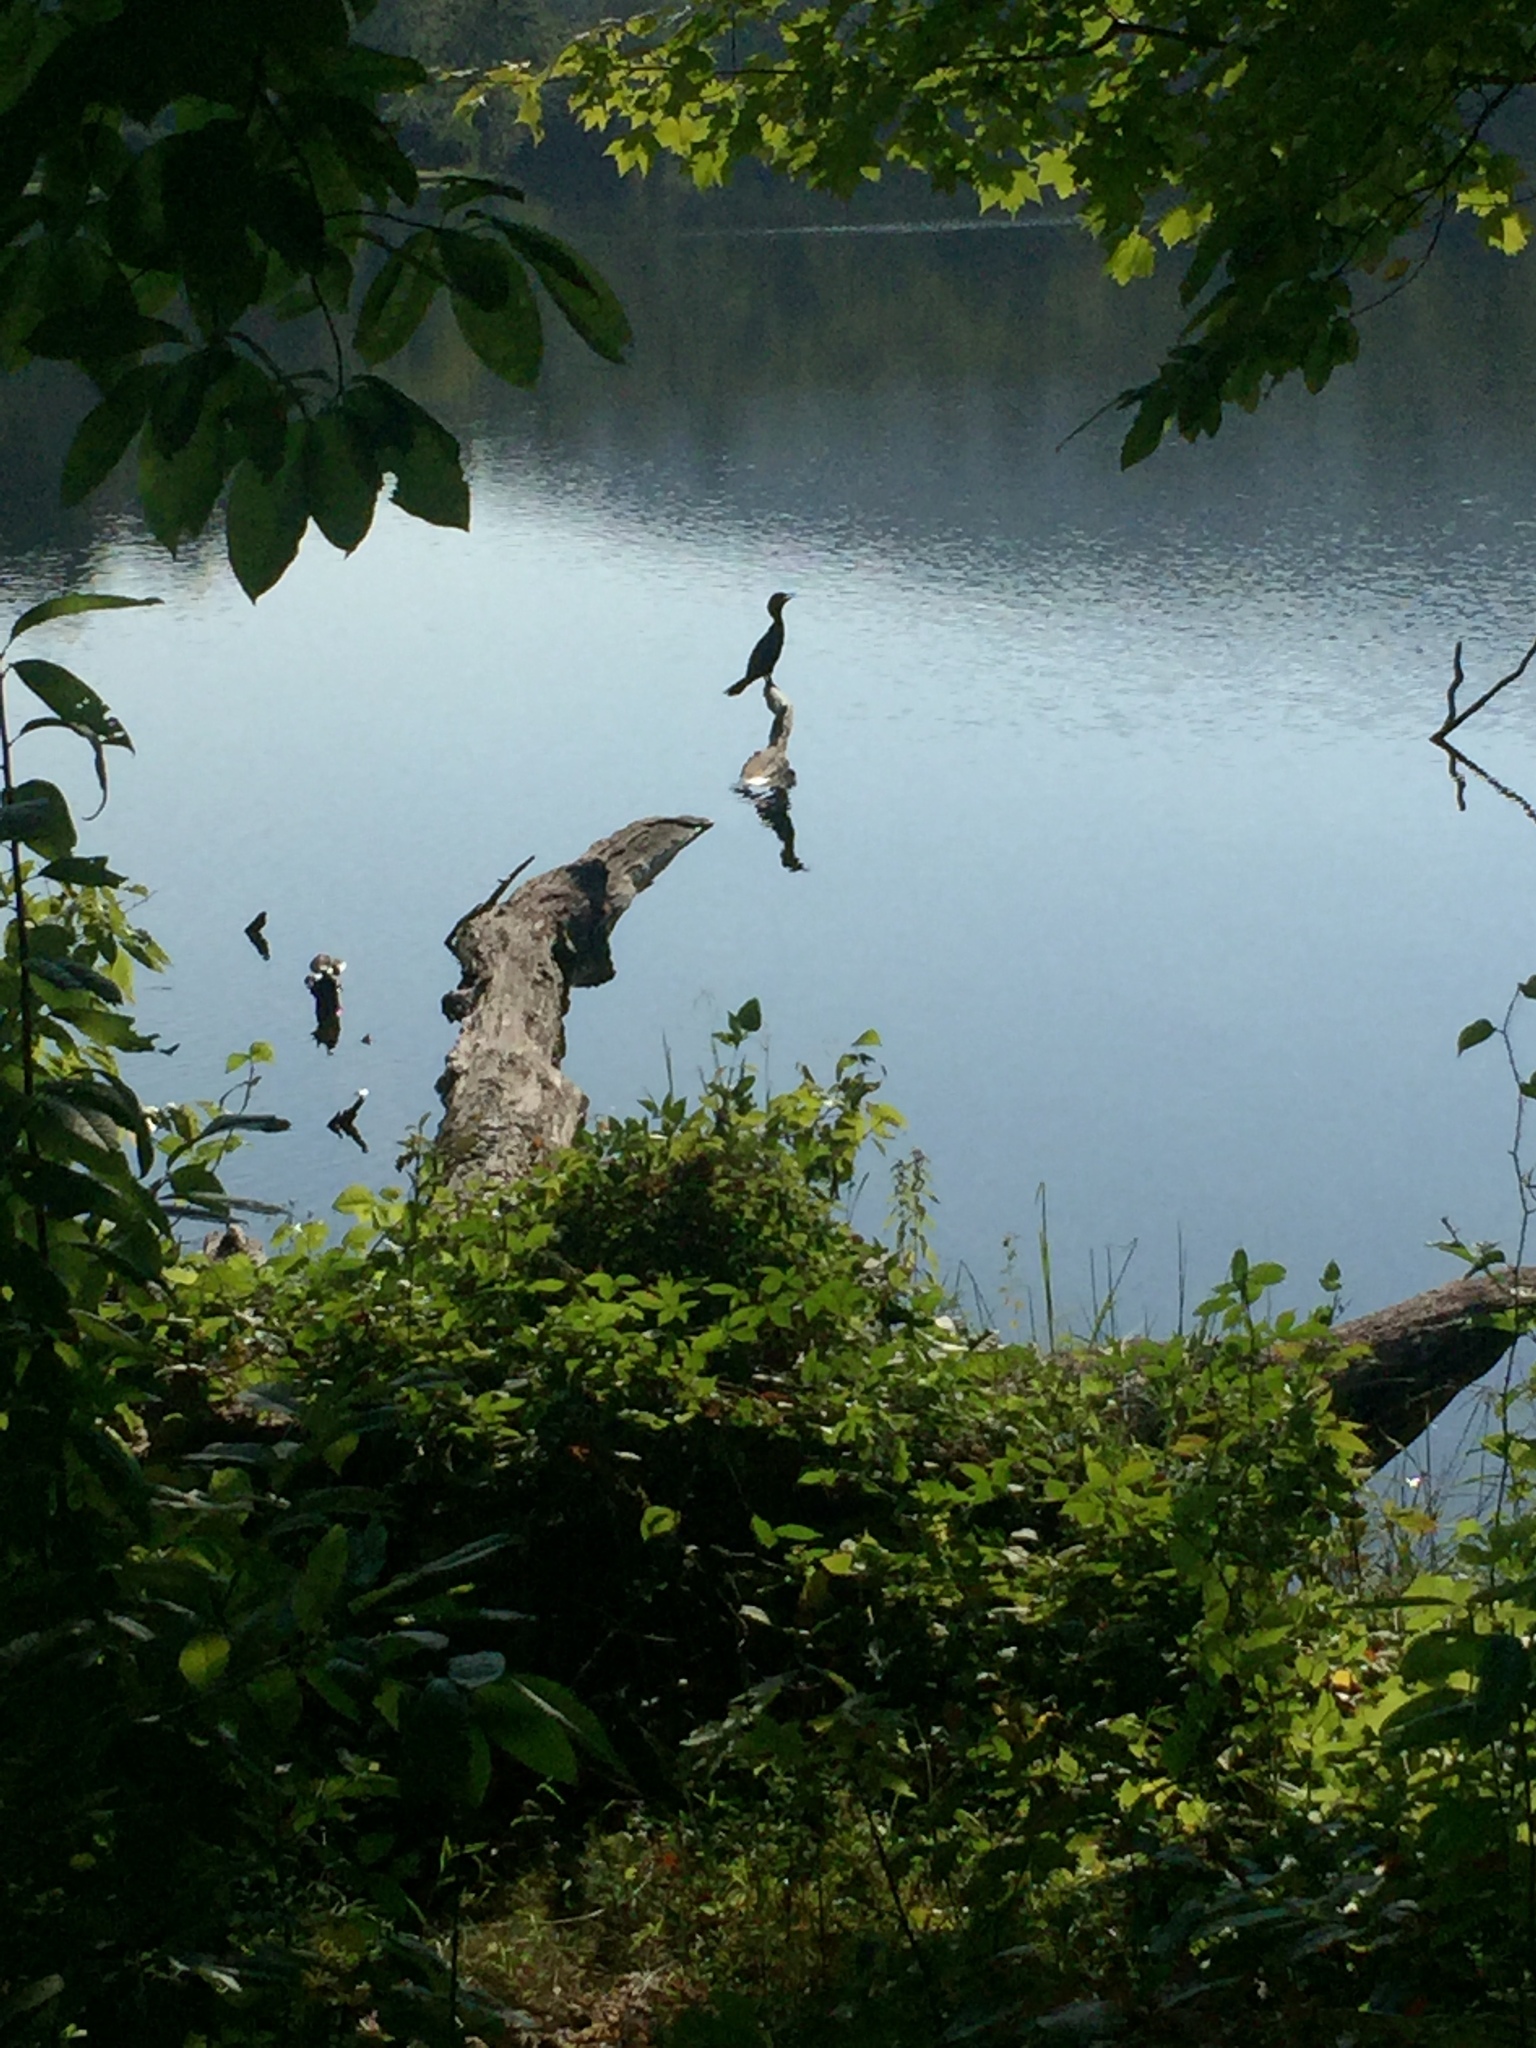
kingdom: Animalia
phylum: Chordata
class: Aves
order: Suliformes
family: Phalacrocoracidae
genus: Phalacrocorax
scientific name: Phalacrocorax auritus
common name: Double-crested cormorant
